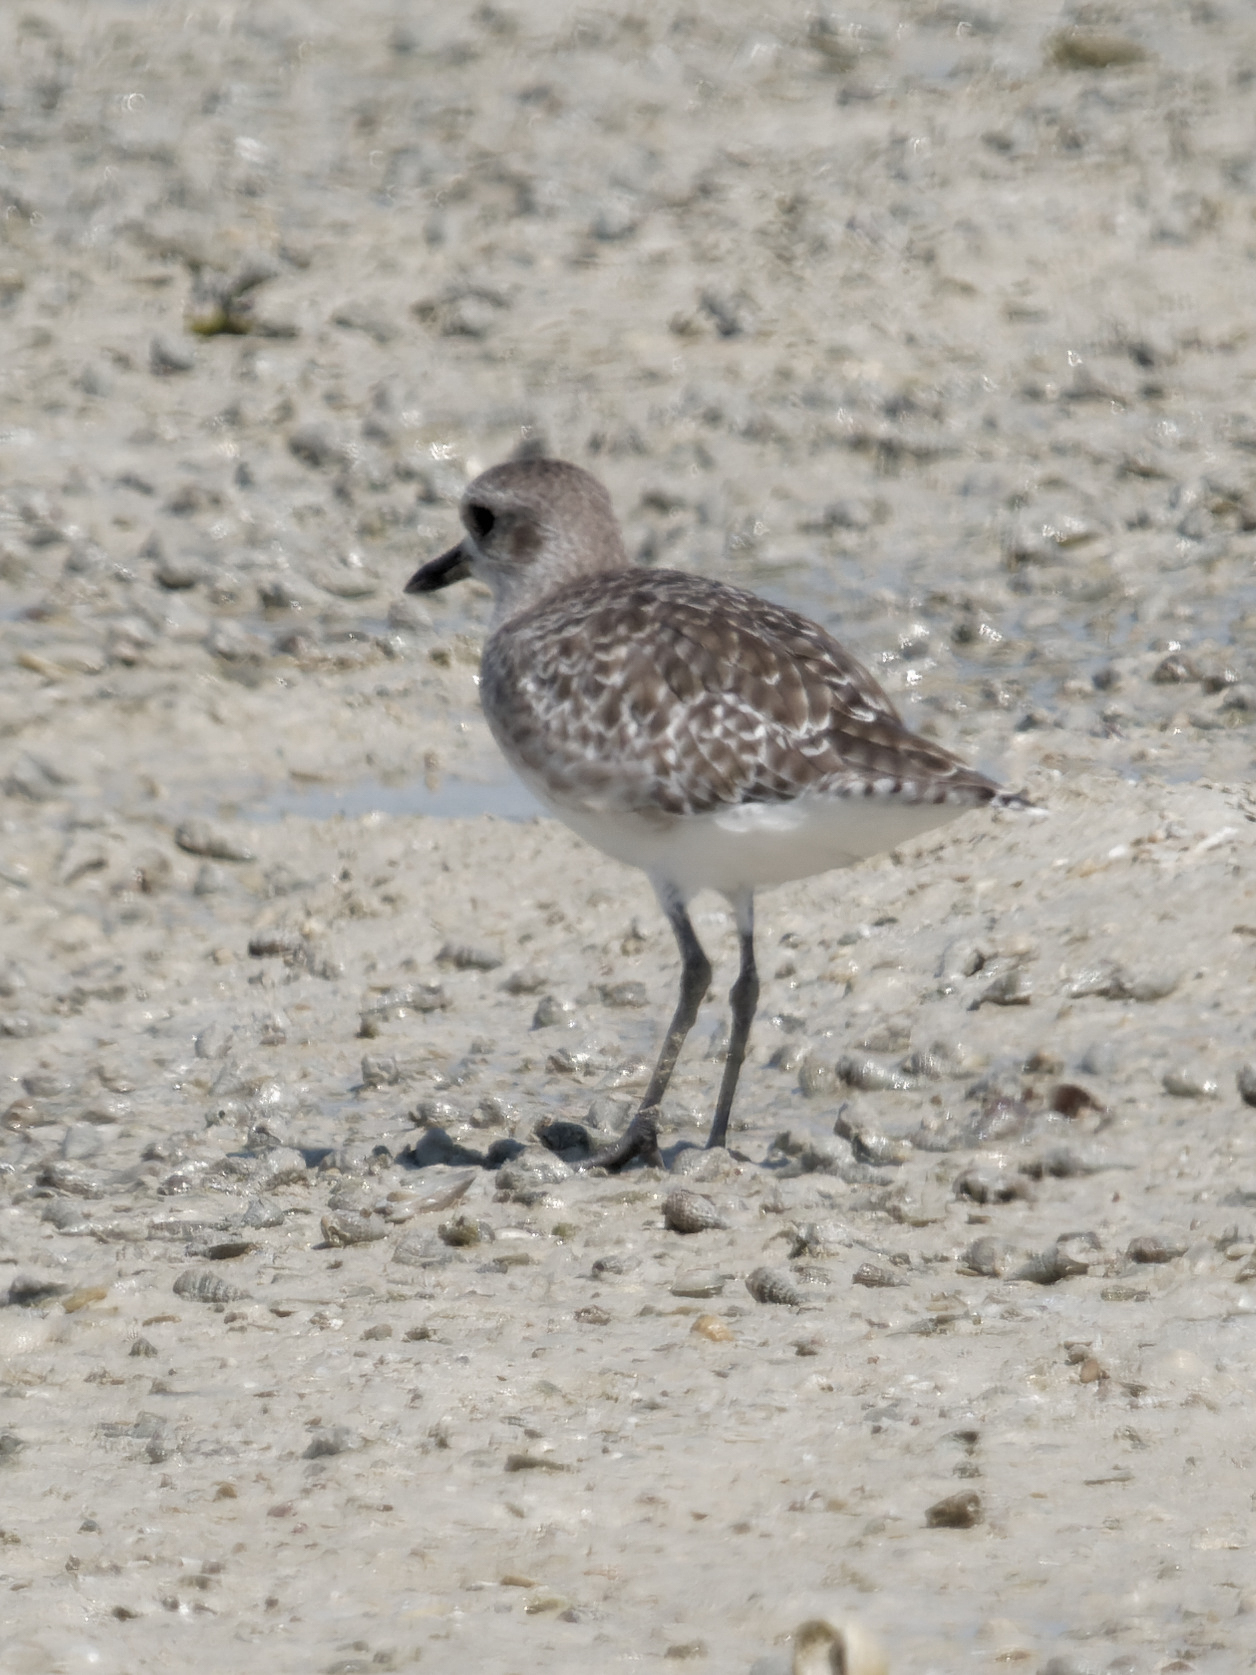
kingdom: Animalia
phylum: Chordata
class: Aves
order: Charadriiformes
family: Charadriidae
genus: Pluvialis
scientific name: Pluvialis squatarola
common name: Grey plover
